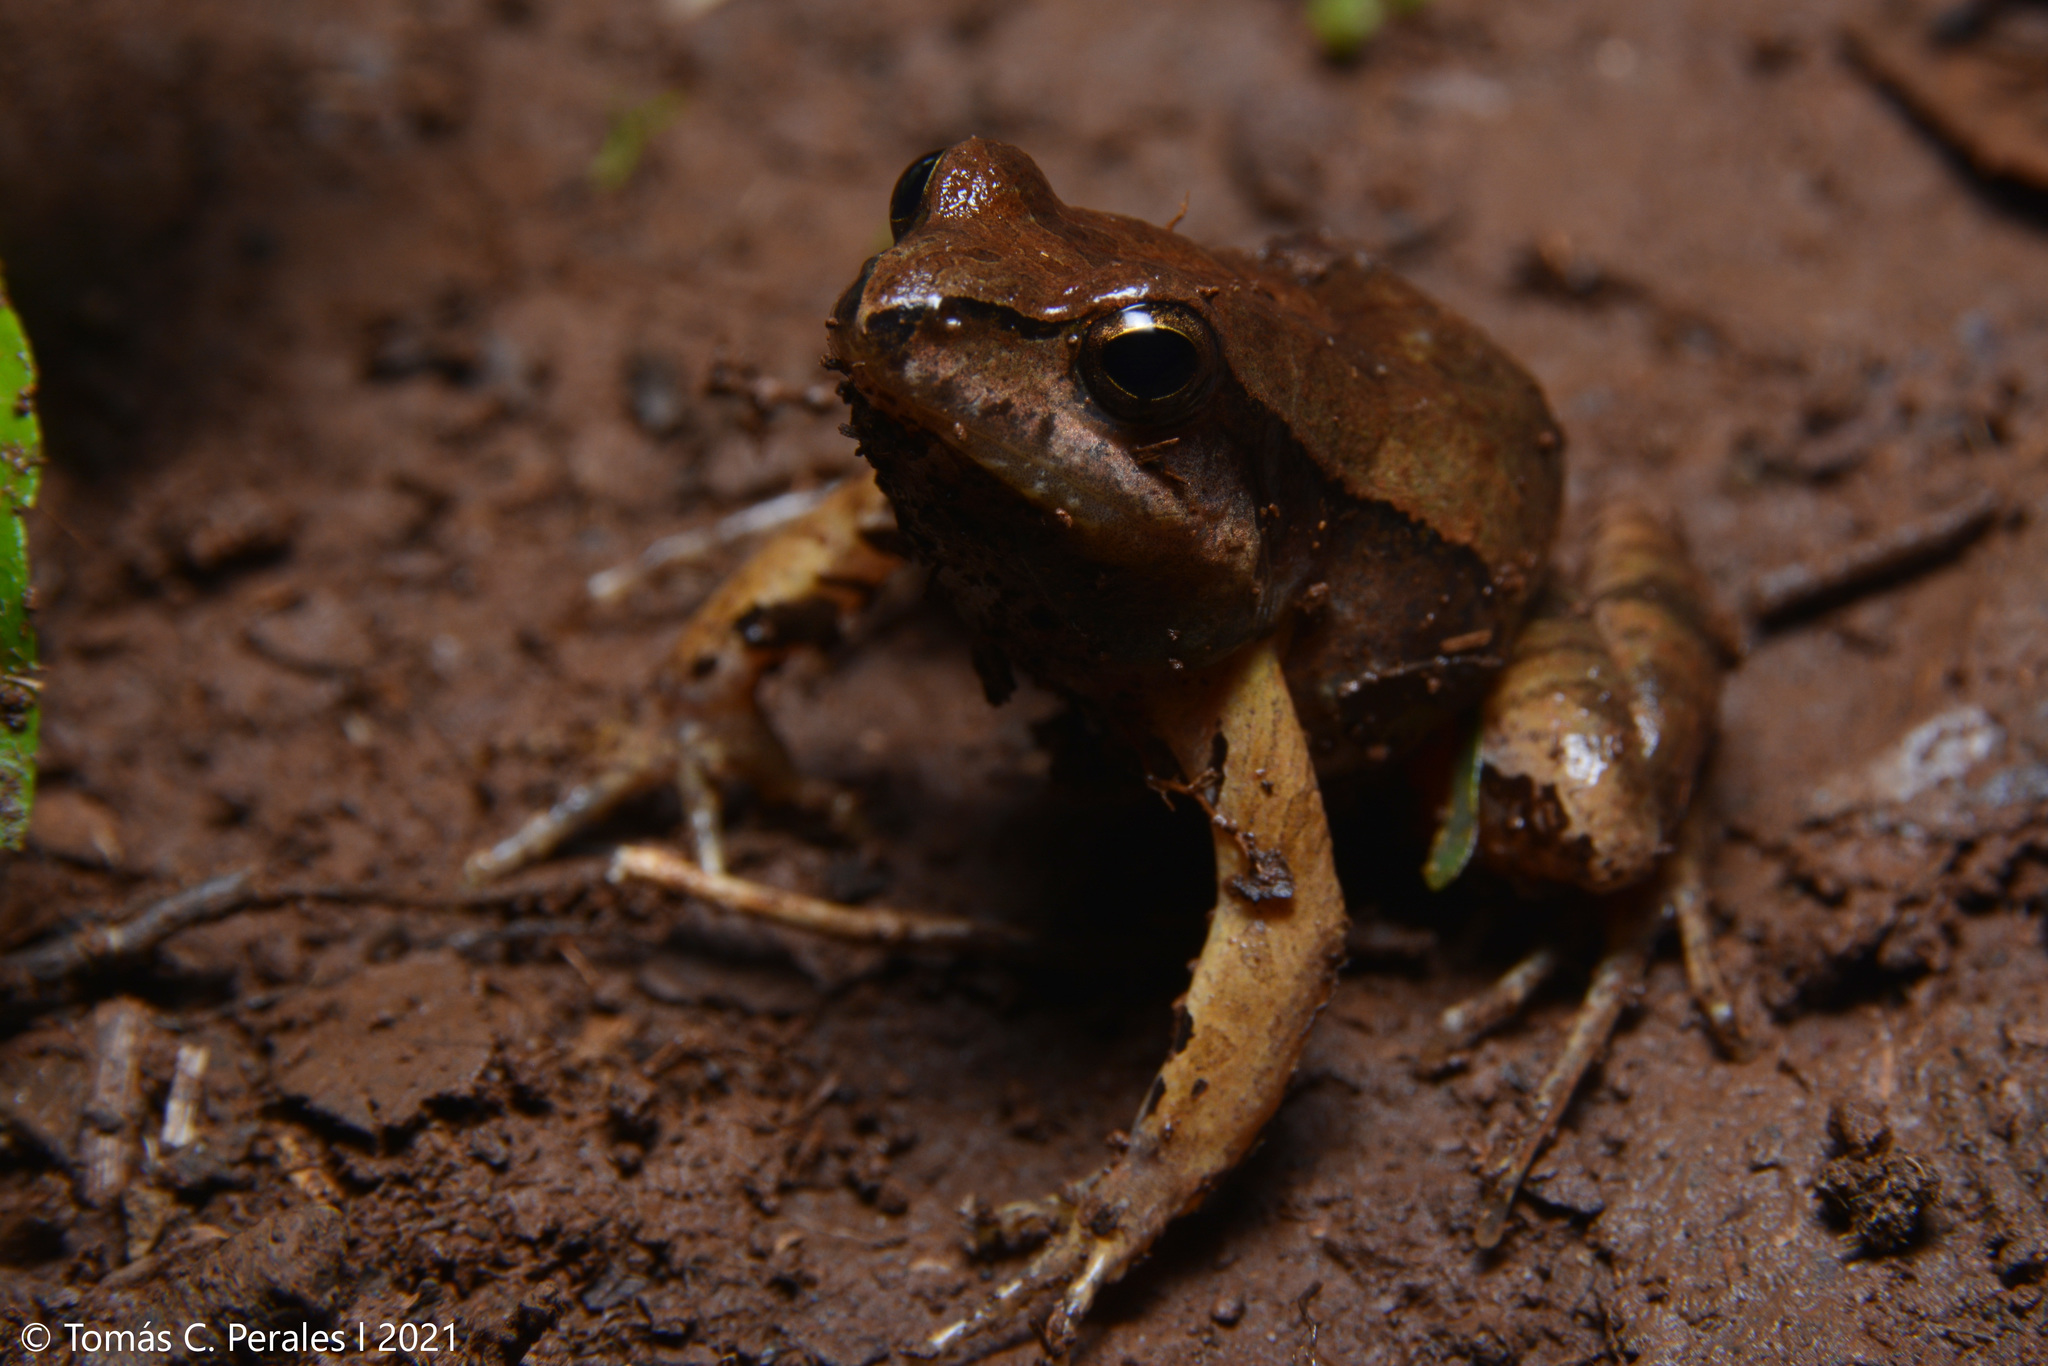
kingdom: Animalia
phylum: Chordata
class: Amphibia
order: Anura
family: Leptodactylidae
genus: Physalaemus
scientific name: Physalaemus cuvieri
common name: Barker frog
